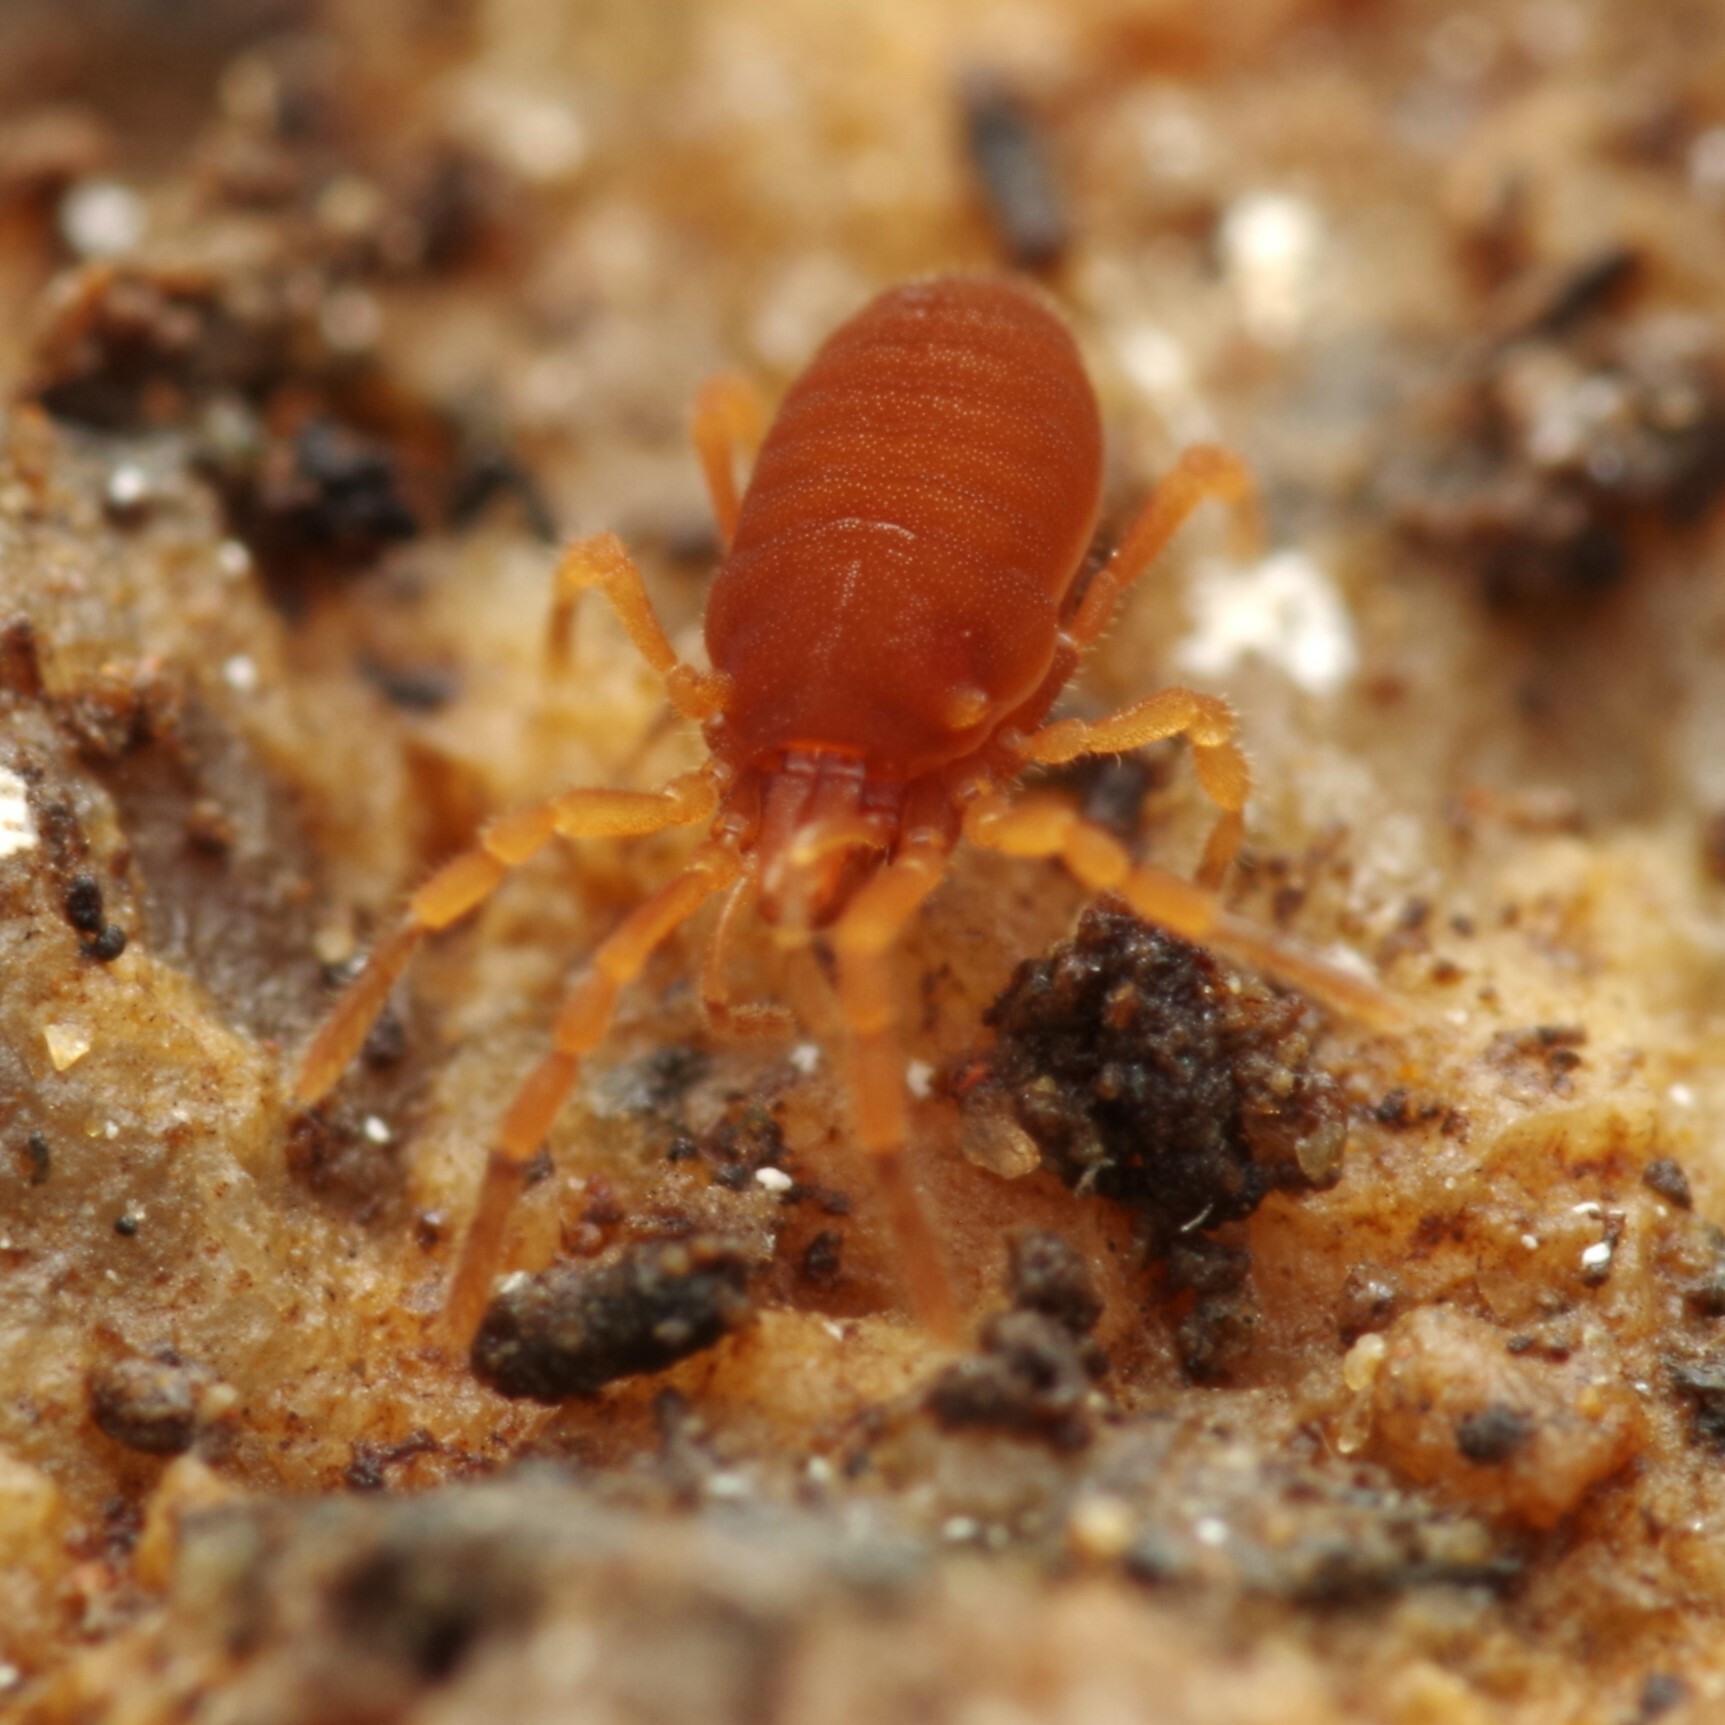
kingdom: Animalia
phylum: Arthropoda
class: Arachnida
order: Opiliones
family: Sironidae
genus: Siro
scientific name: Siro rubens
